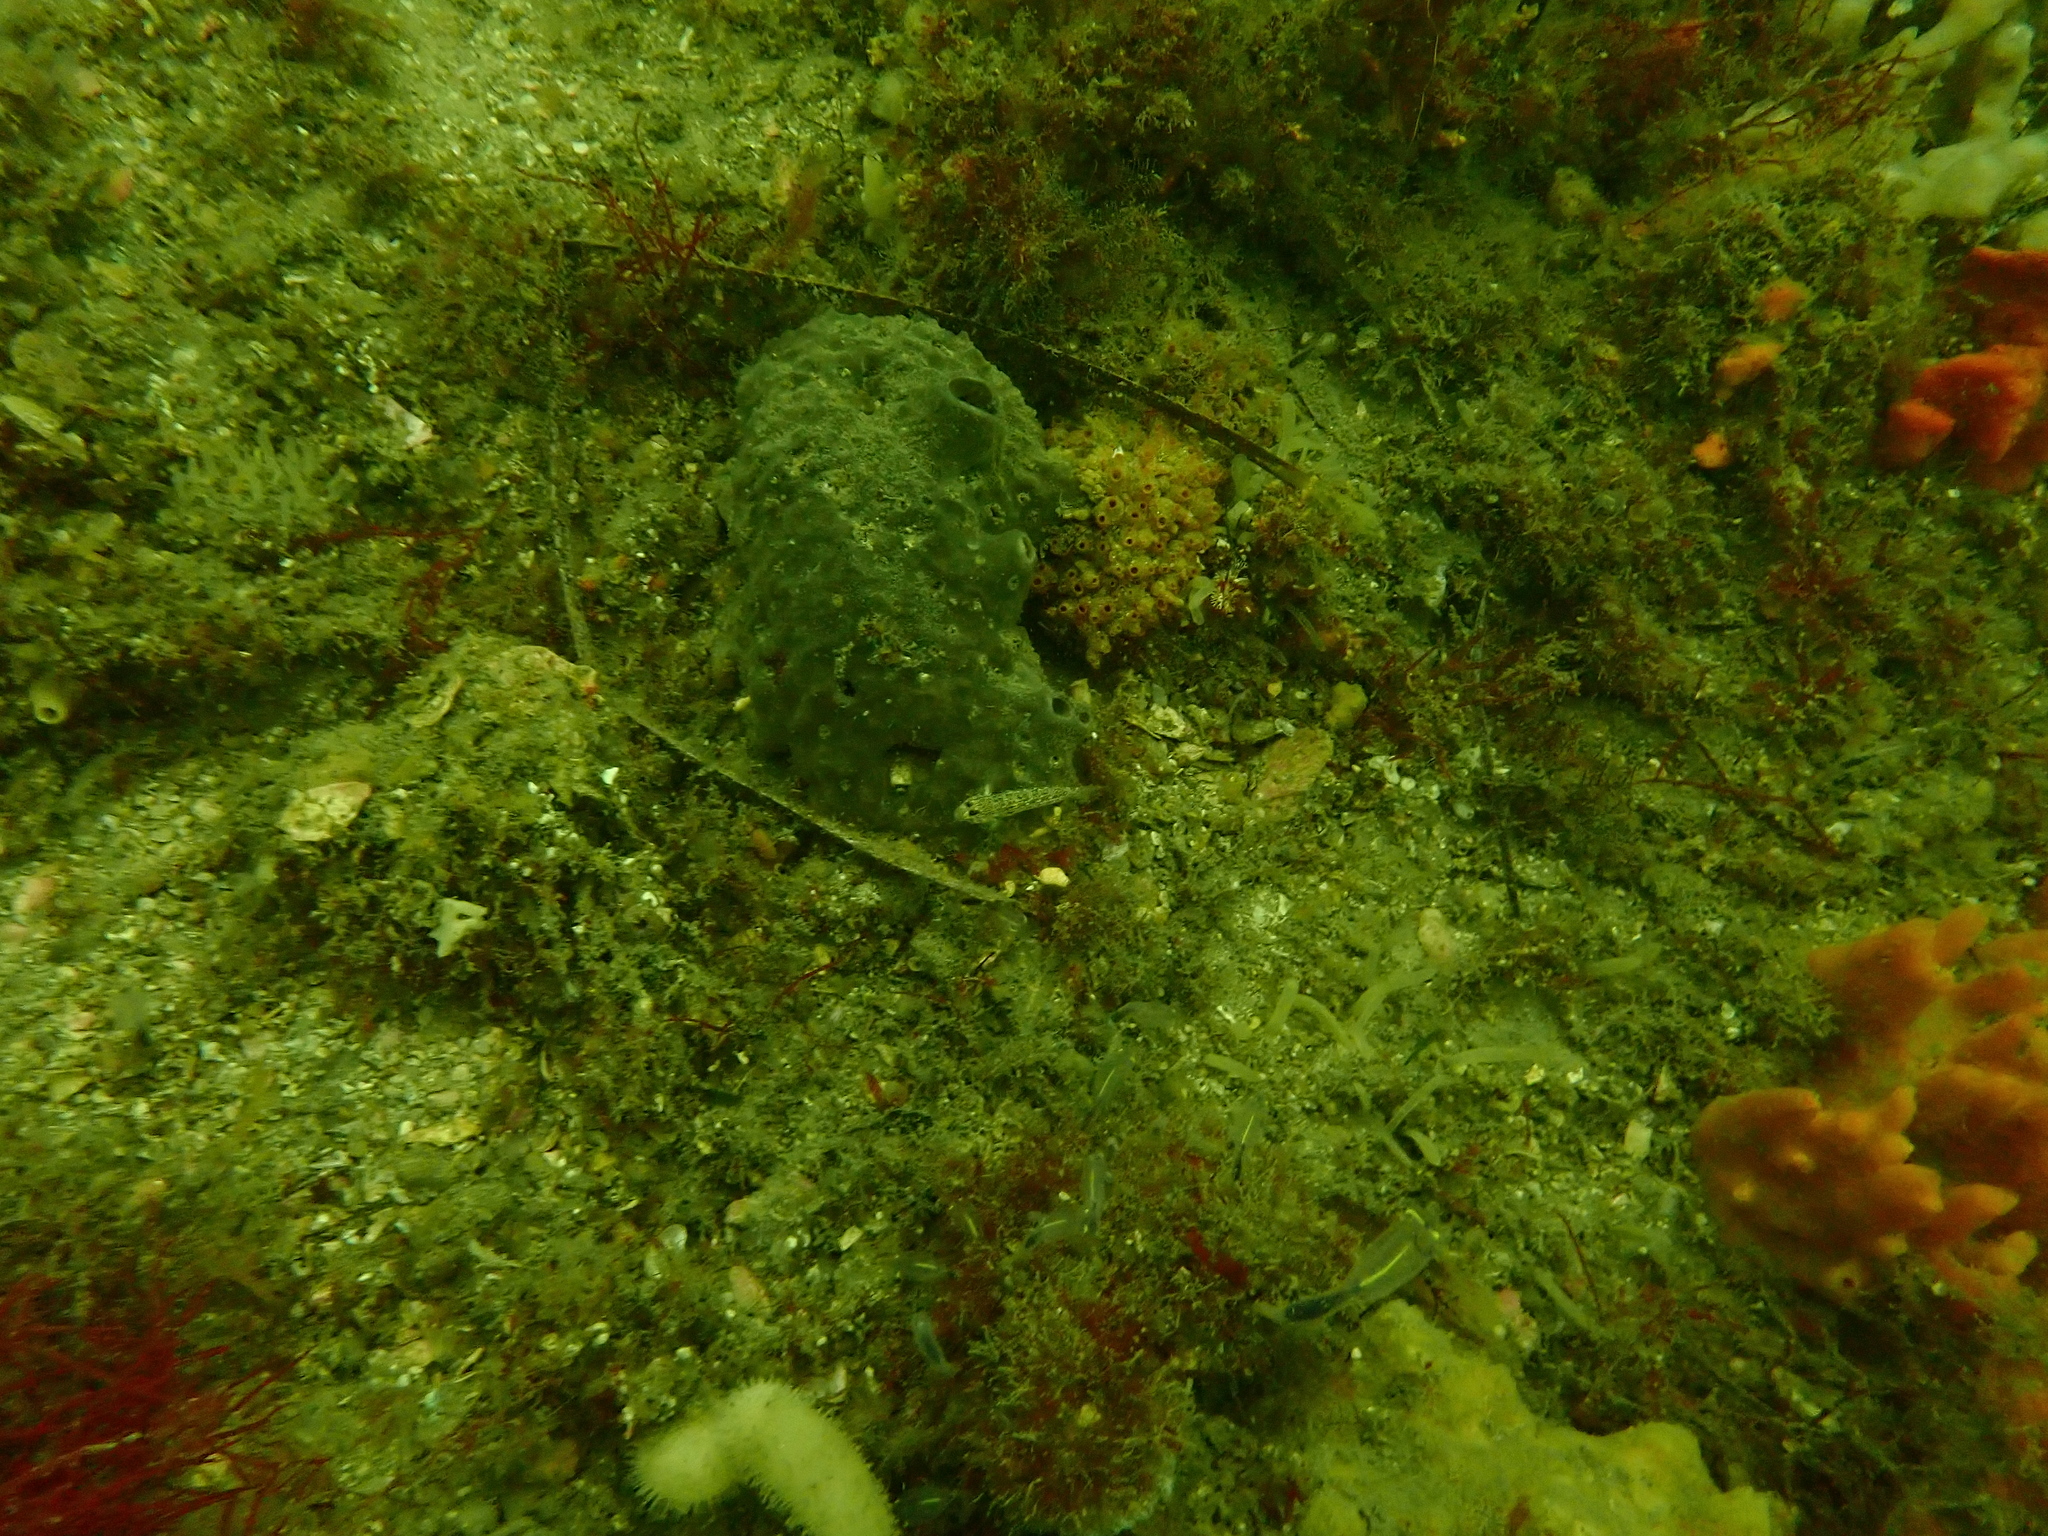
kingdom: Animalia
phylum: Chordata
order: Perciformes
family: Gobiidae
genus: Istigobius
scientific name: Istigobius hoesei
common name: Hoese's sandgoby
